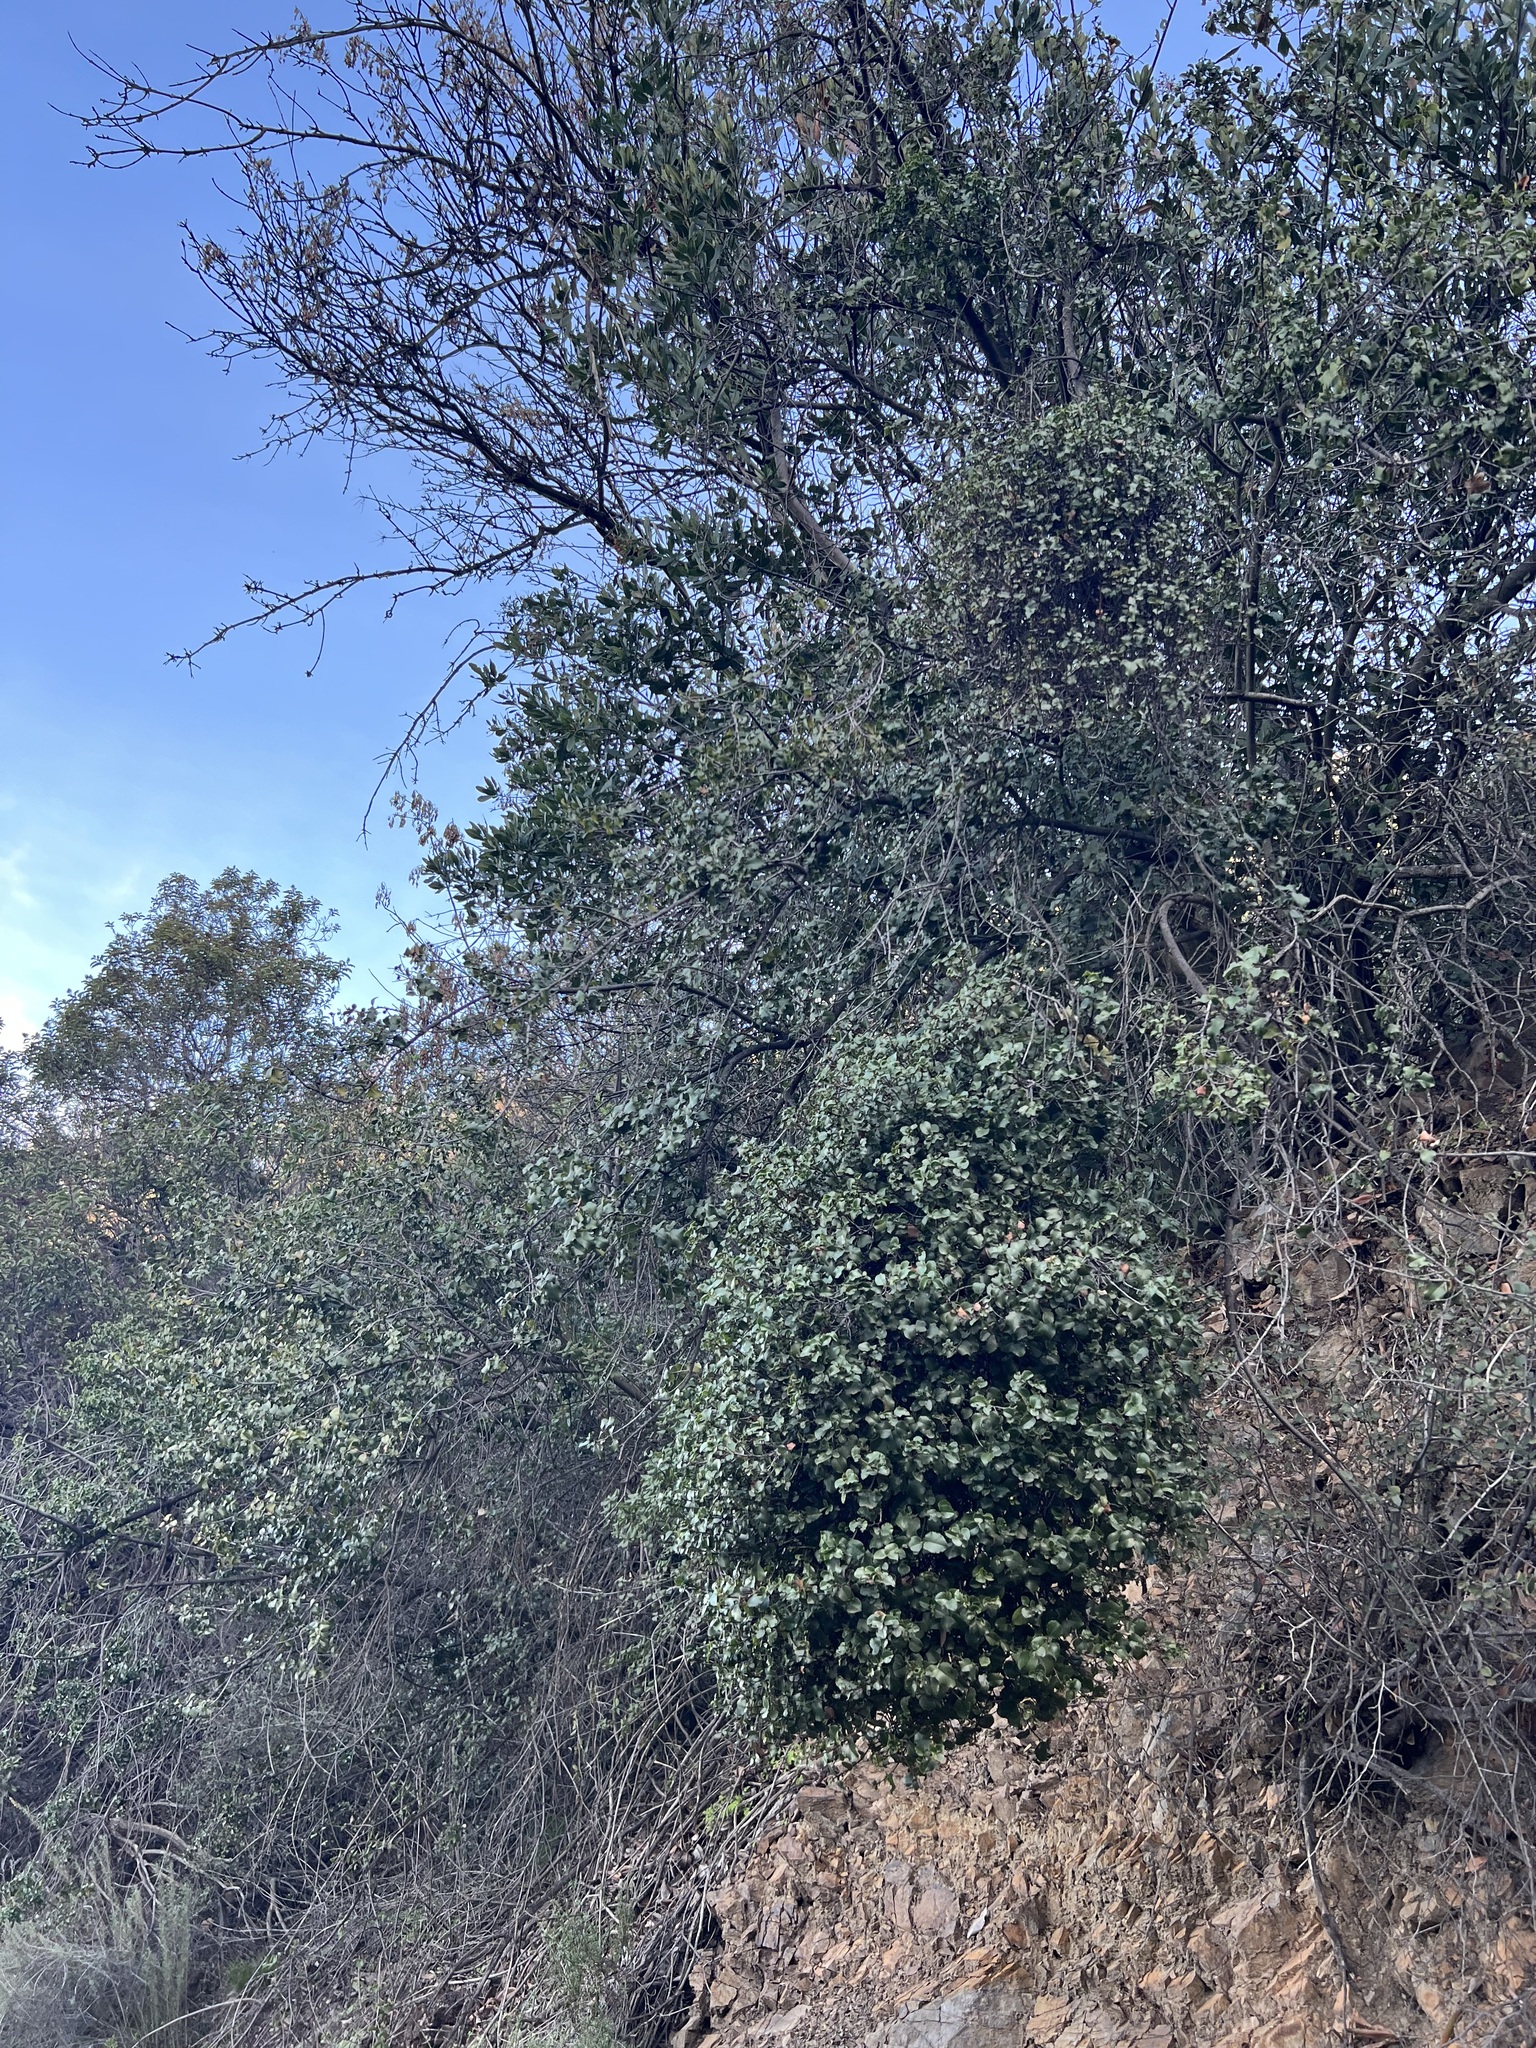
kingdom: Plantae
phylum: Tracheophyta
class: Magnoliopsida
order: Rosales
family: Rosaceae
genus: Prunus
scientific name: Prunus ilicifolia
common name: Hollyleaf cherry
